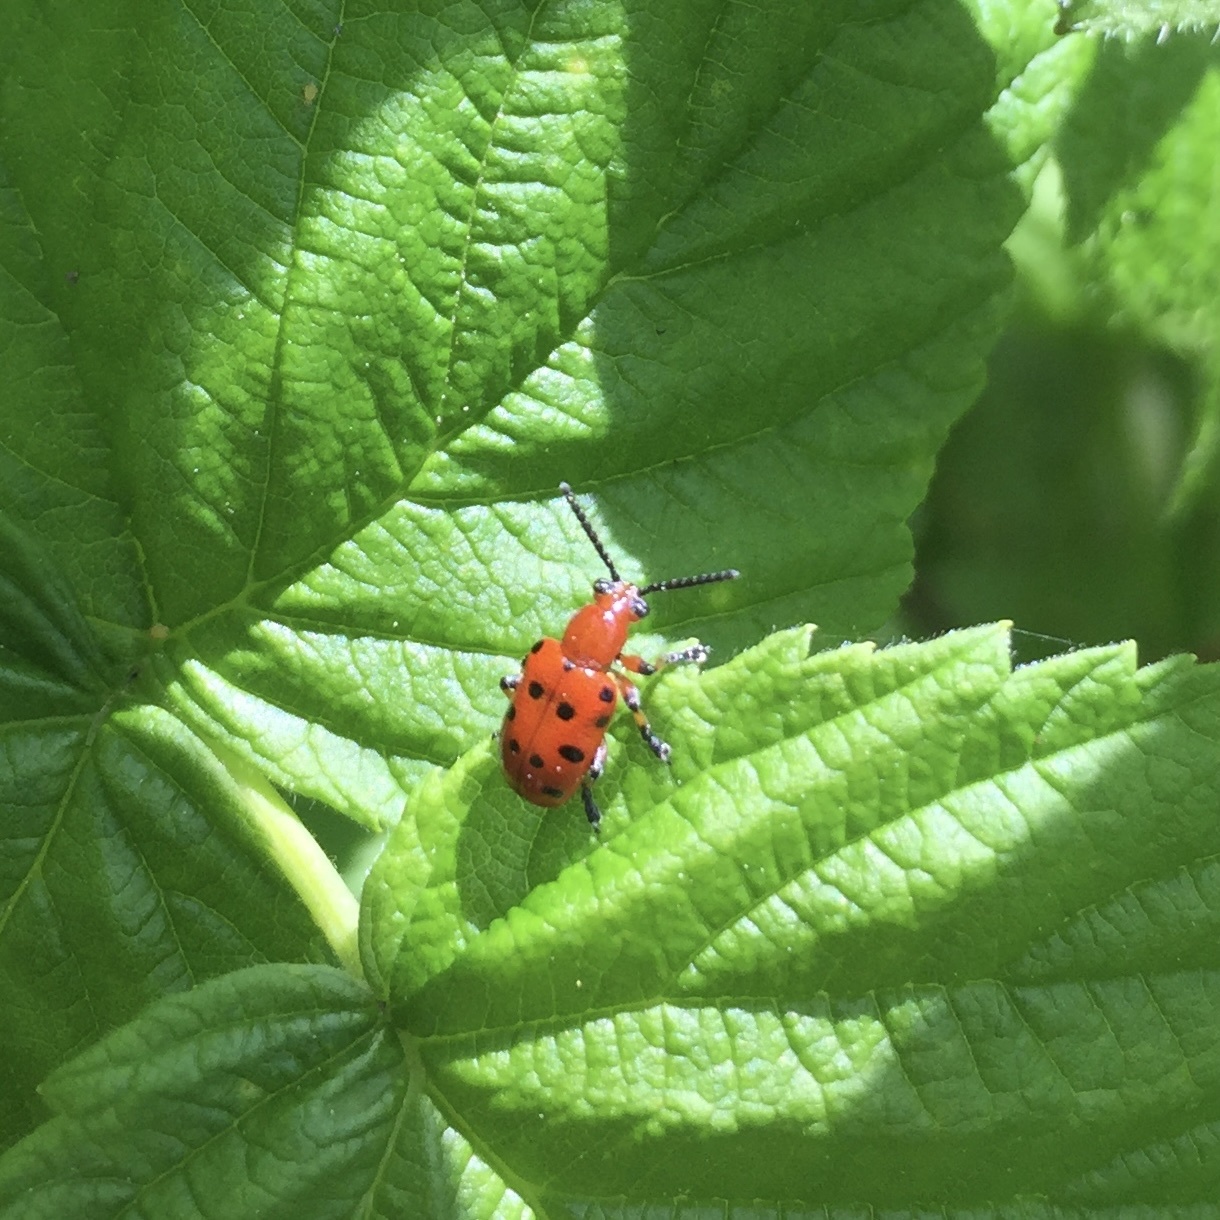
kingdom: Animalia
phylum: Arthropoda
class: Insecta
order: Coleoptera
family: Chrysomelidae
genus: Crioceris
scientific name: Crioceris duodecimpunctata
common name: Twelve-spotted asparagus beetle
